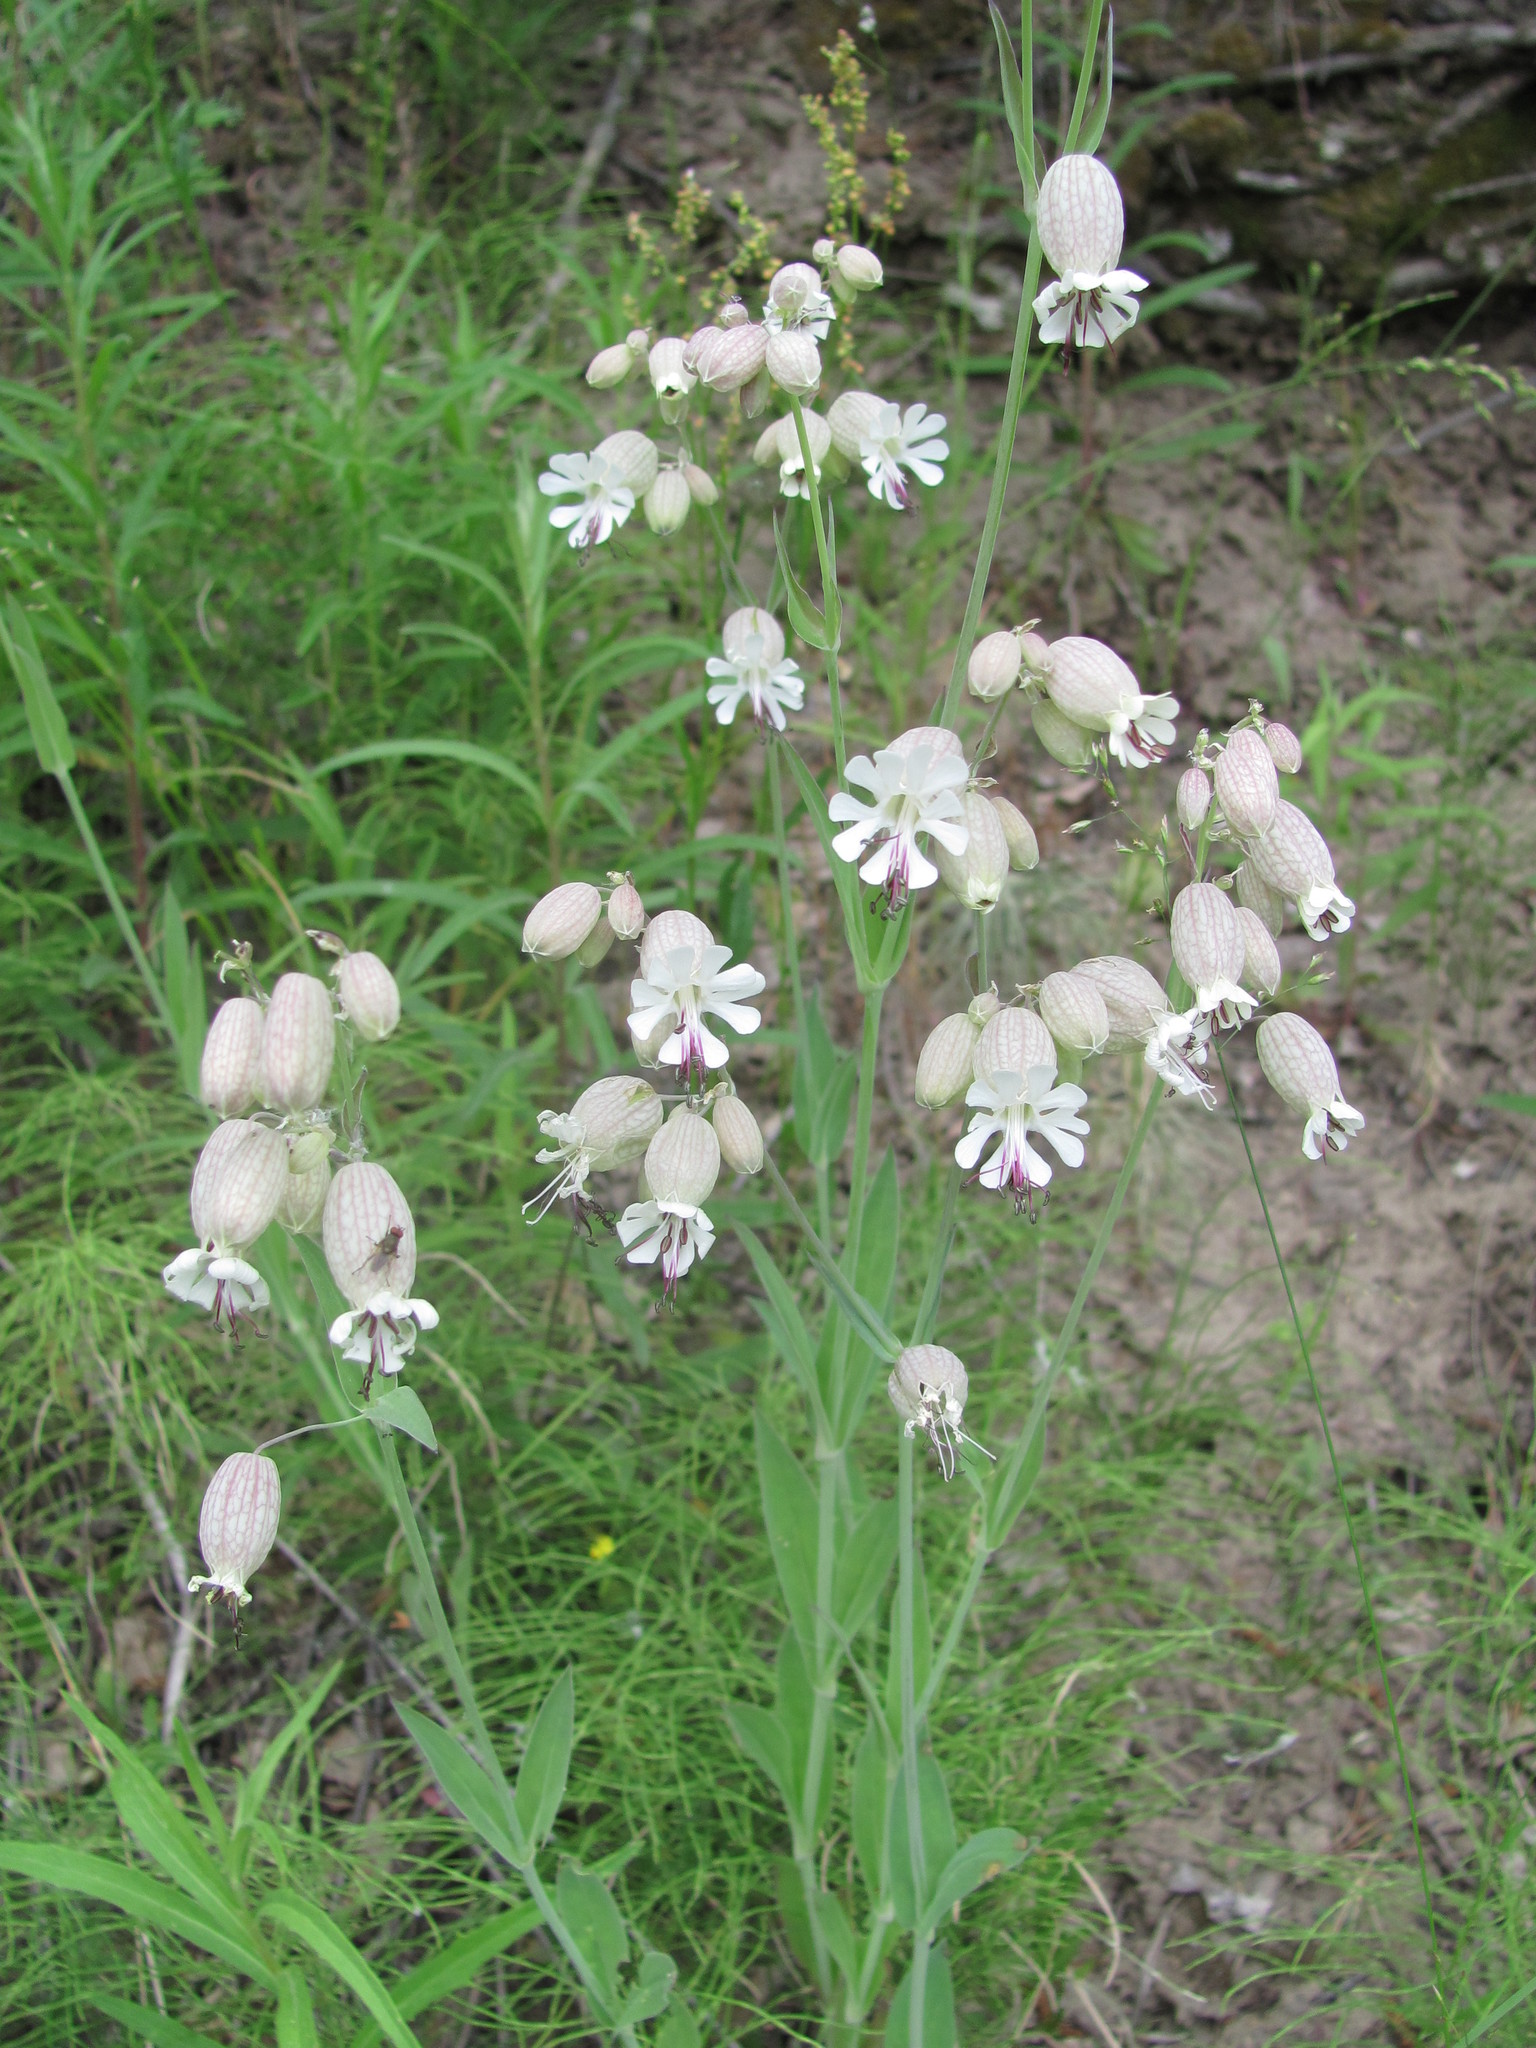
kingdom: Plantae
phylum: Tracheophyta
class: Magnoliopsida
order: Caryophyllales
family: Caryophyllaceae
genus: Silene
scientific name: Silene vulgaris
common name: Bladder campion
